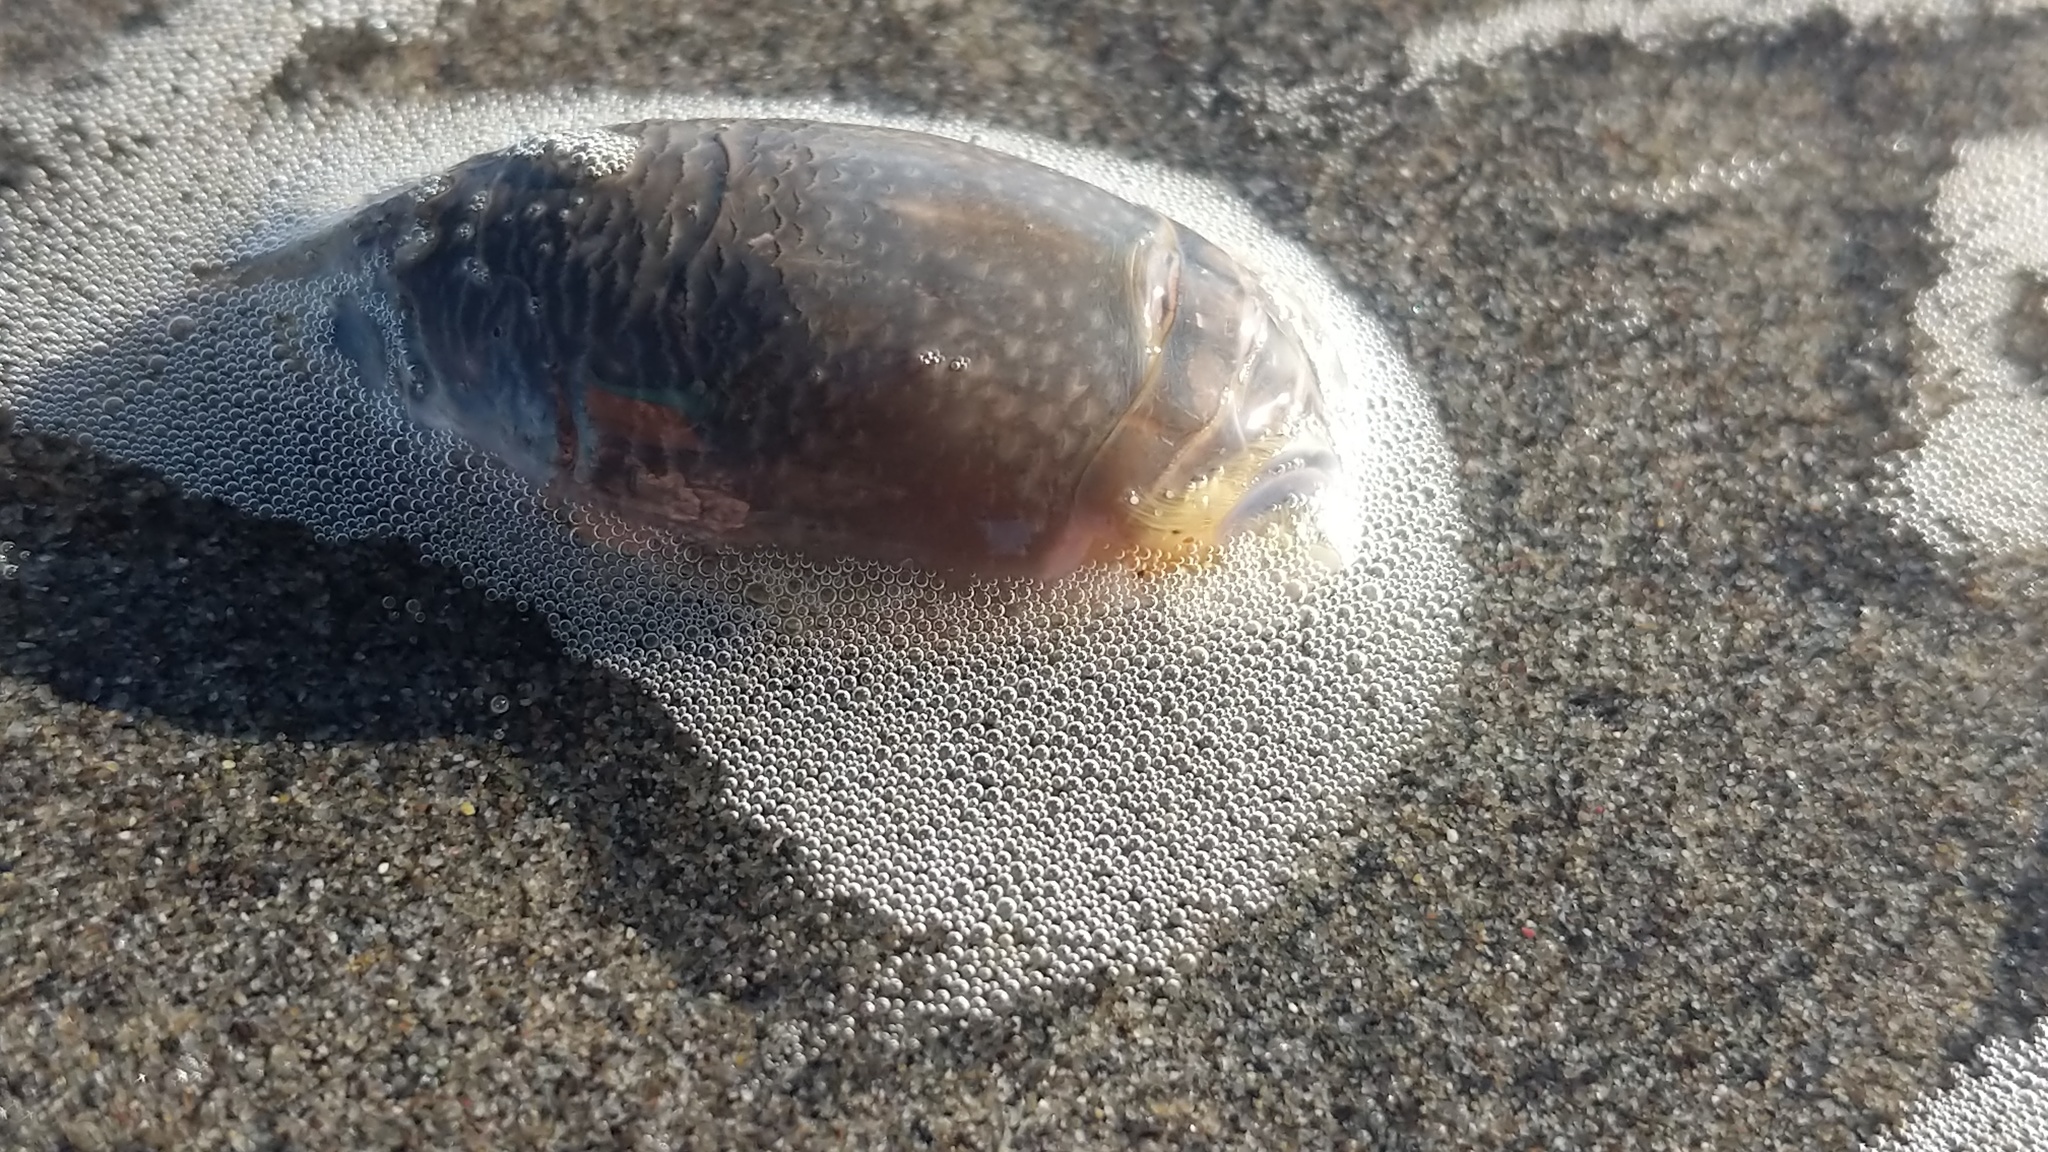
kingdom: Animalia
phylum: Arthropoda
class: Malacostraca
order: Decapoda
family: Hippidae
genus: Emerita
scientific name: Emerita analoga
